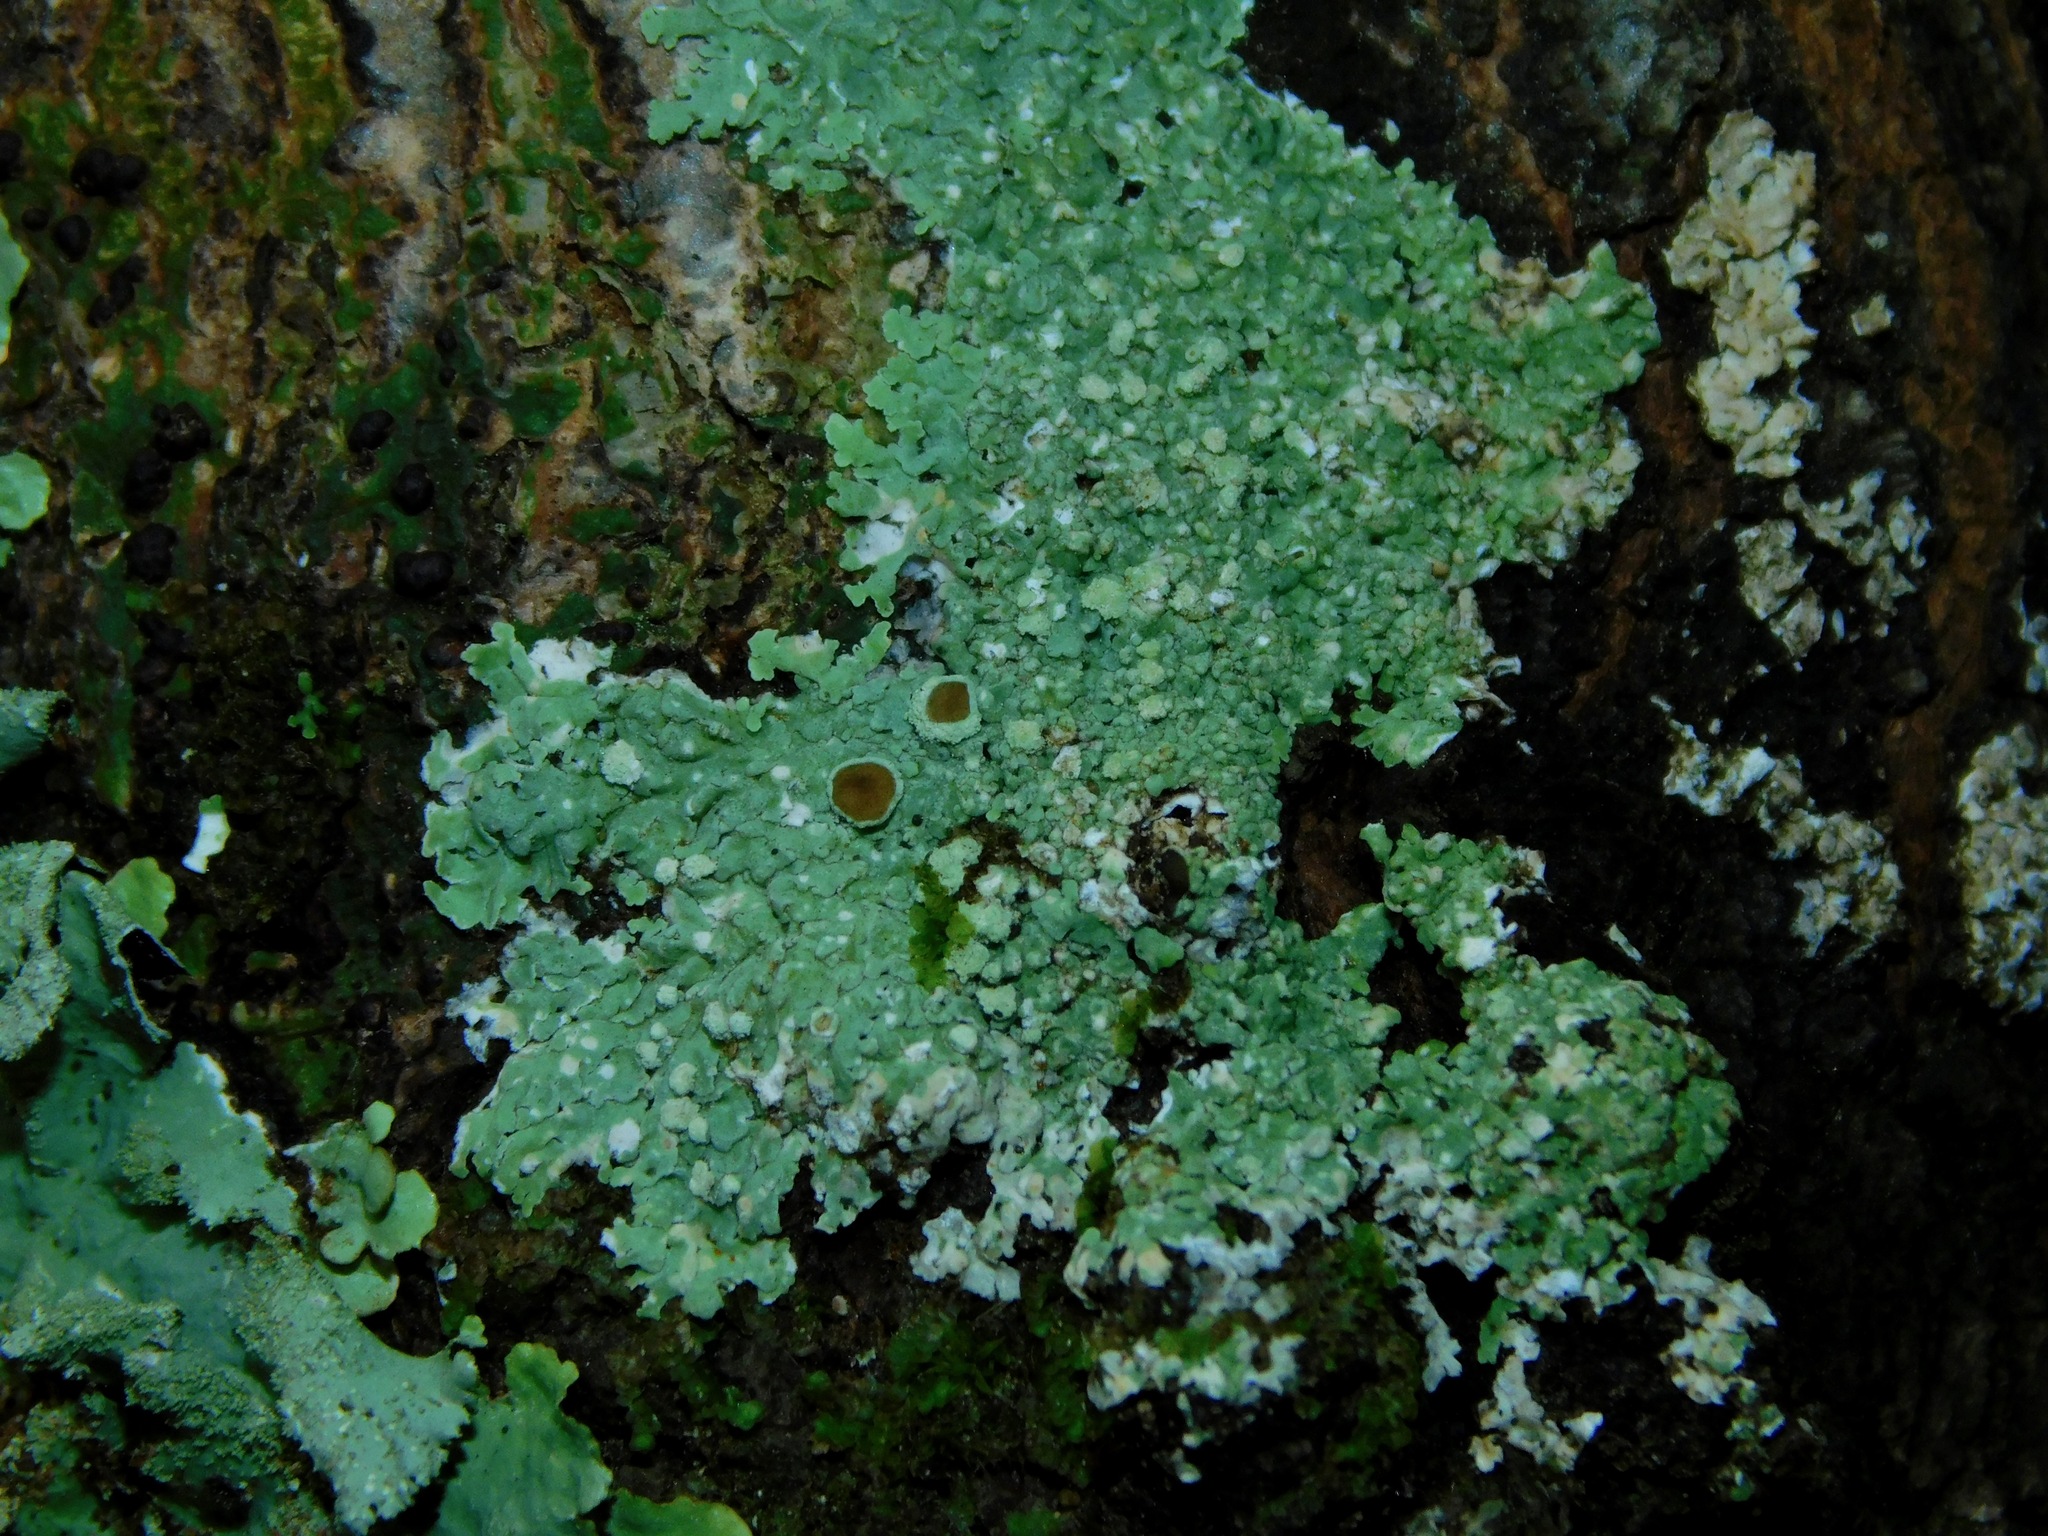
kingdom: Fungi
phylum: Ascomycota
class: Lecanoromycetes
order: Caliciales
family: Physciaceae
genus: Physcia
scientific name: Physcia americana
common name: American rosette lichen
